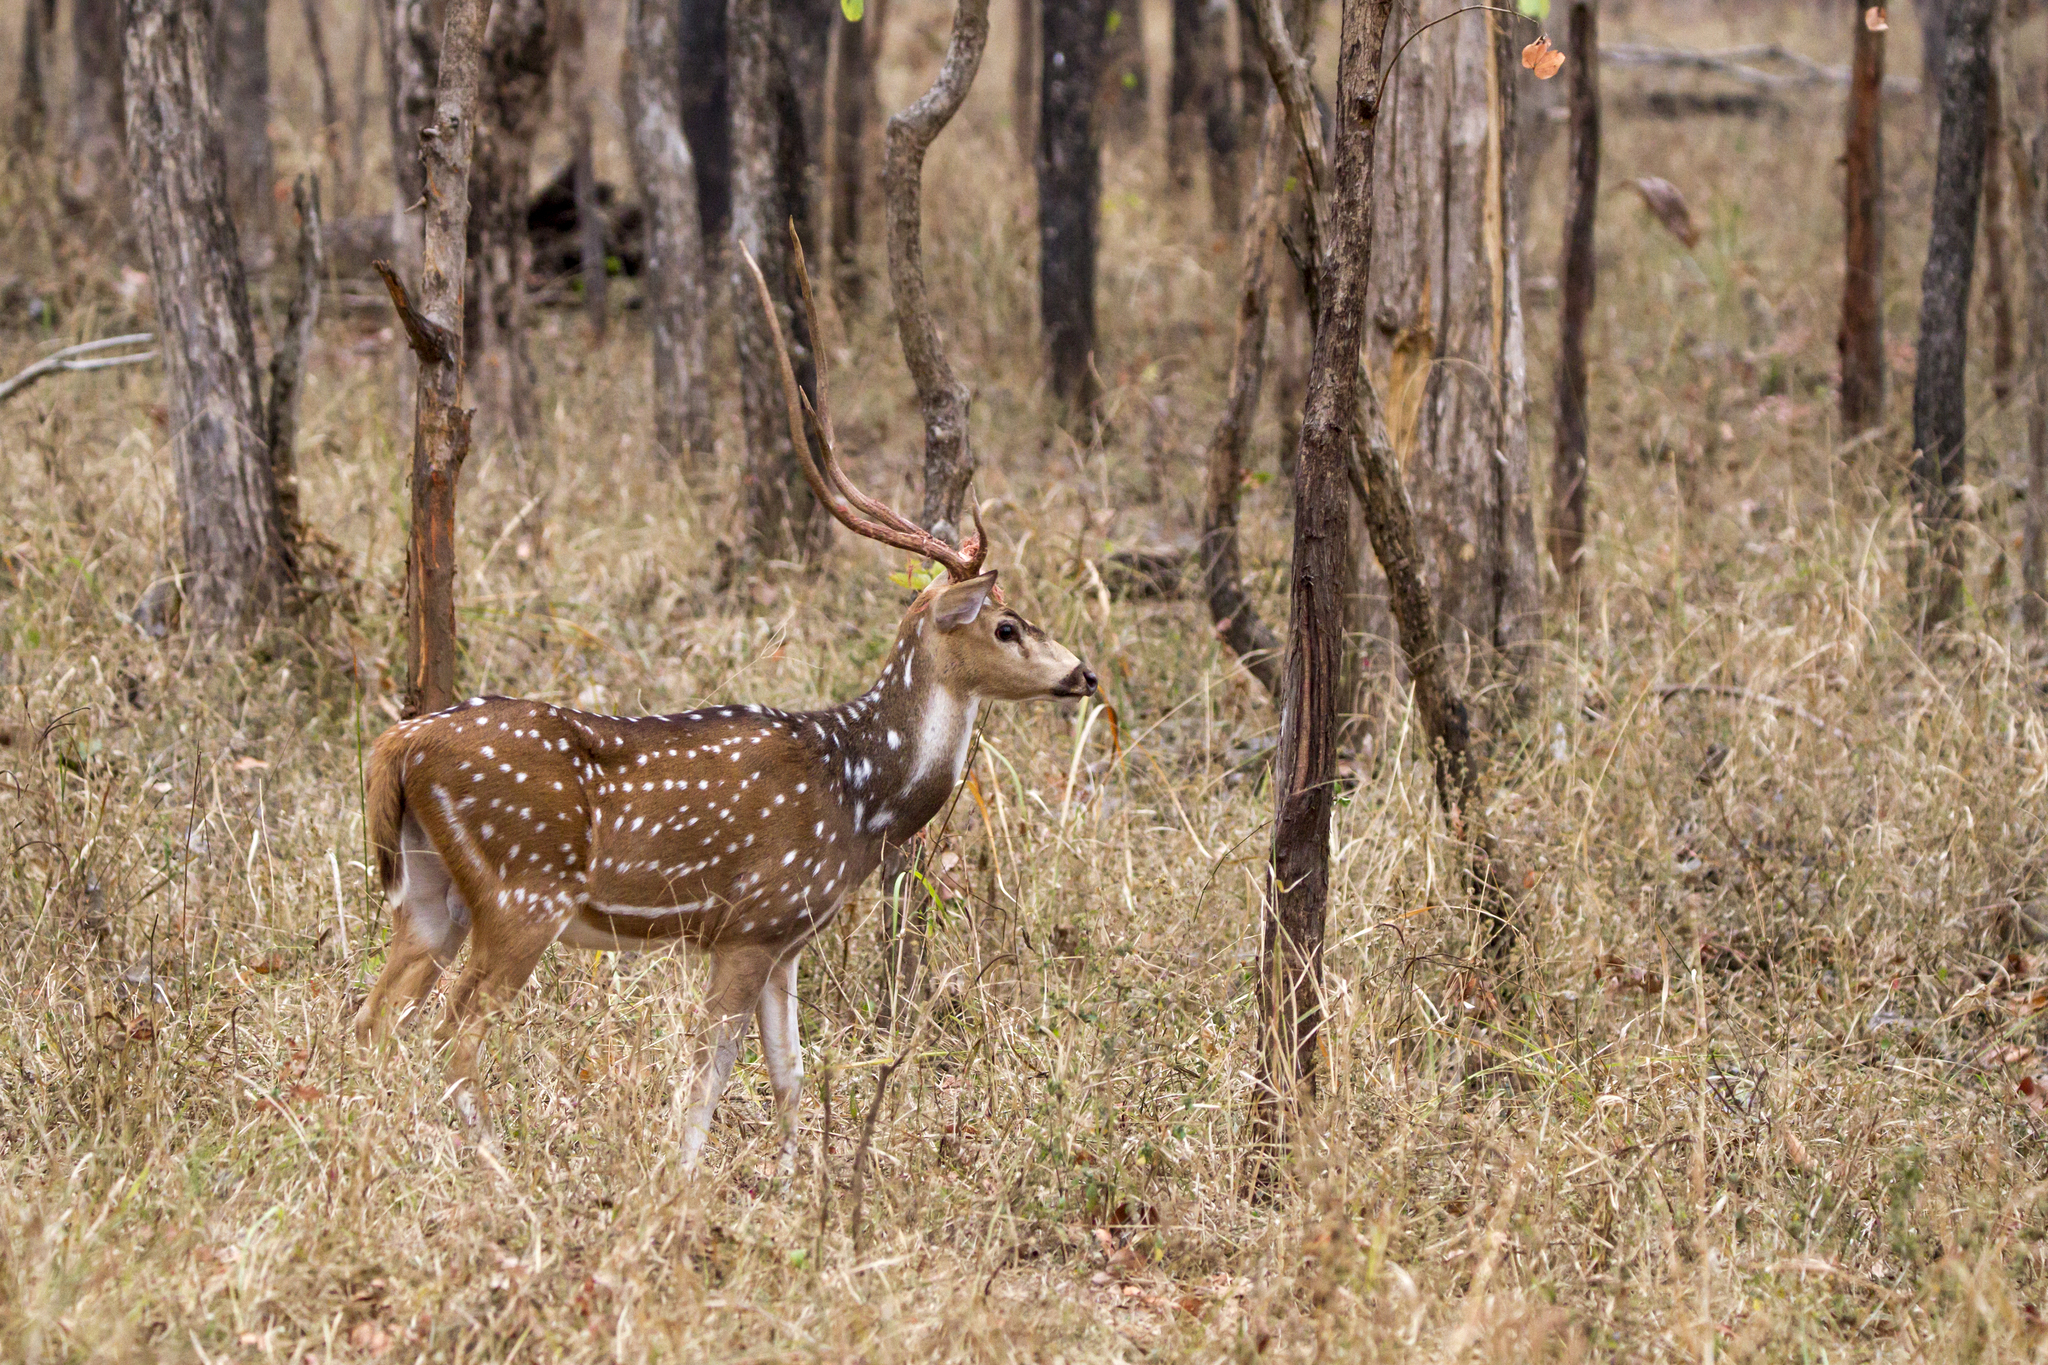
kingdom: Animalia
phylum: Chordata
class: Mammalia
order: Artiodactyla
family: Cervidae
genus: Axis
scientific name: Axis axis
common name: Chital
